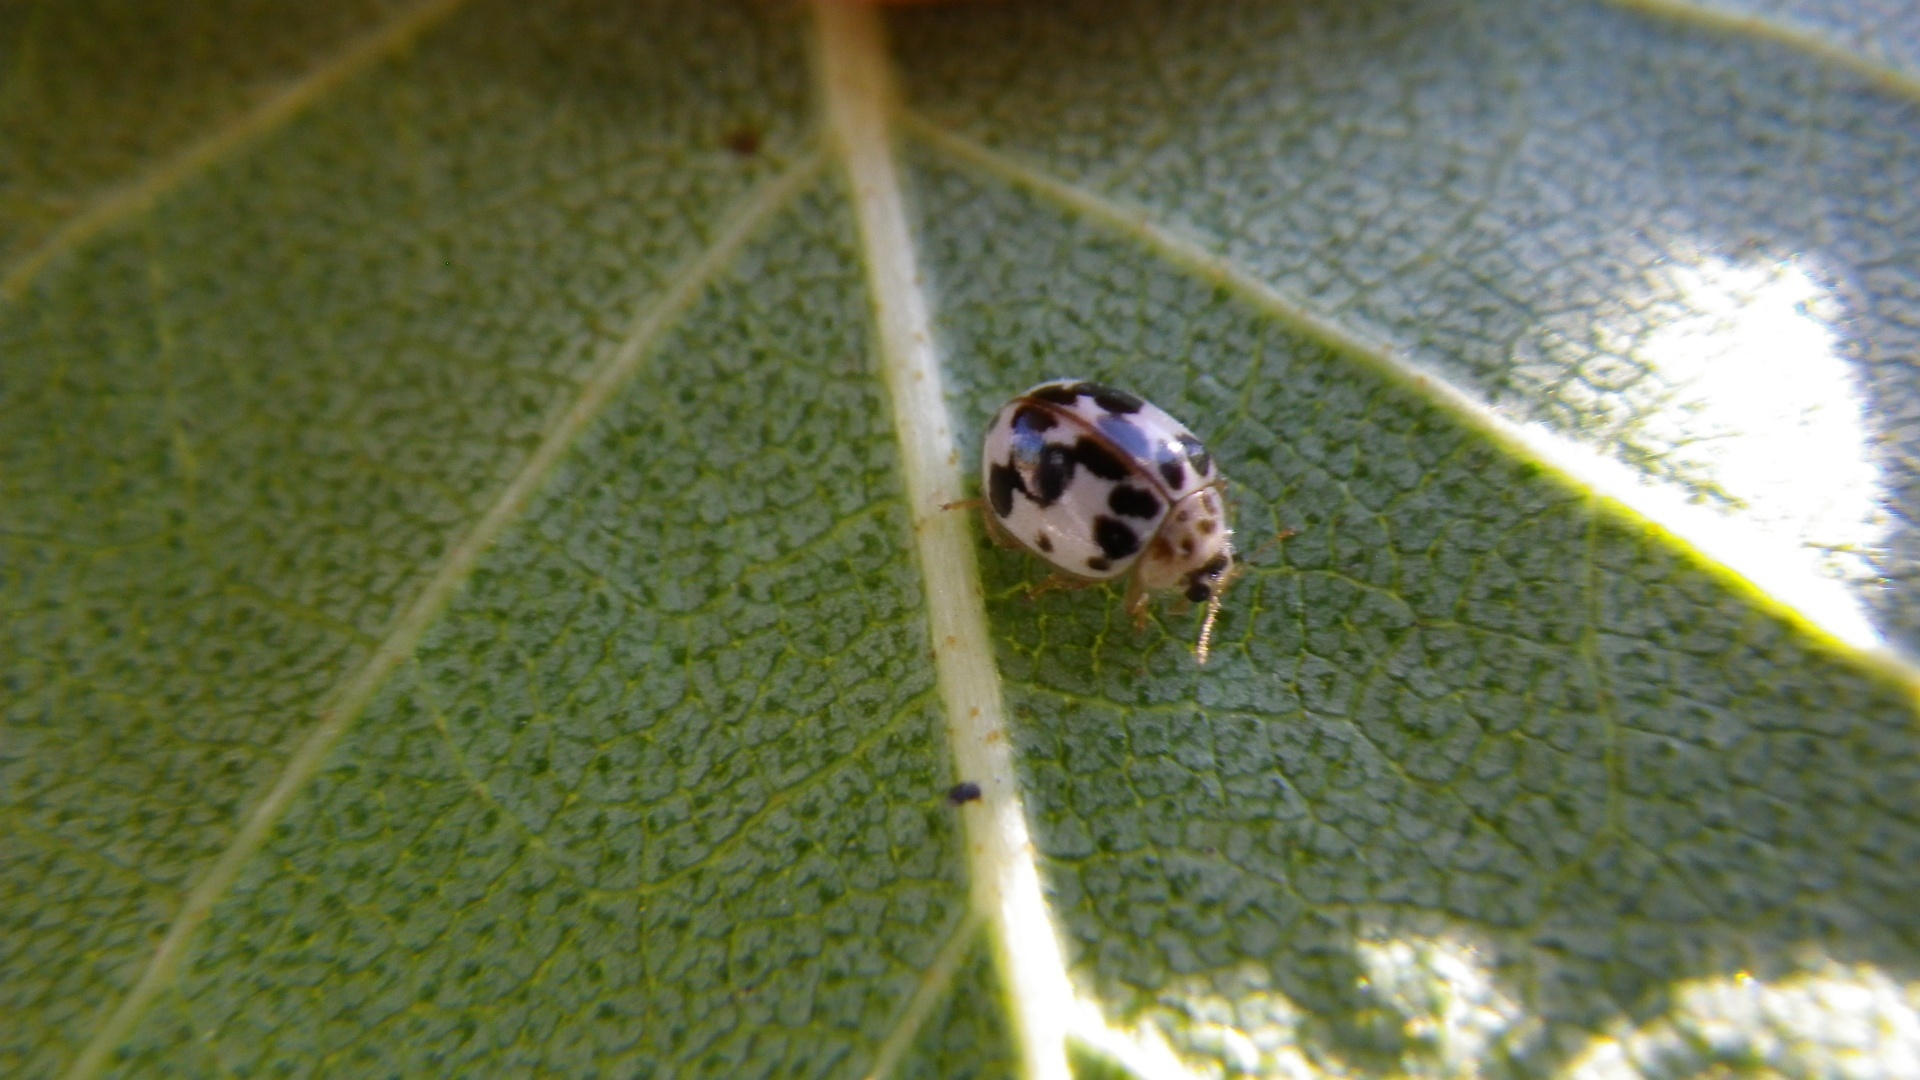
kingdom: Animalia
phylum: Arthropoda
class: Insecta
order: Coleoptera
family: Coccinellidae
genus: Psyllobora
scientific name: Psyllobora borealis
